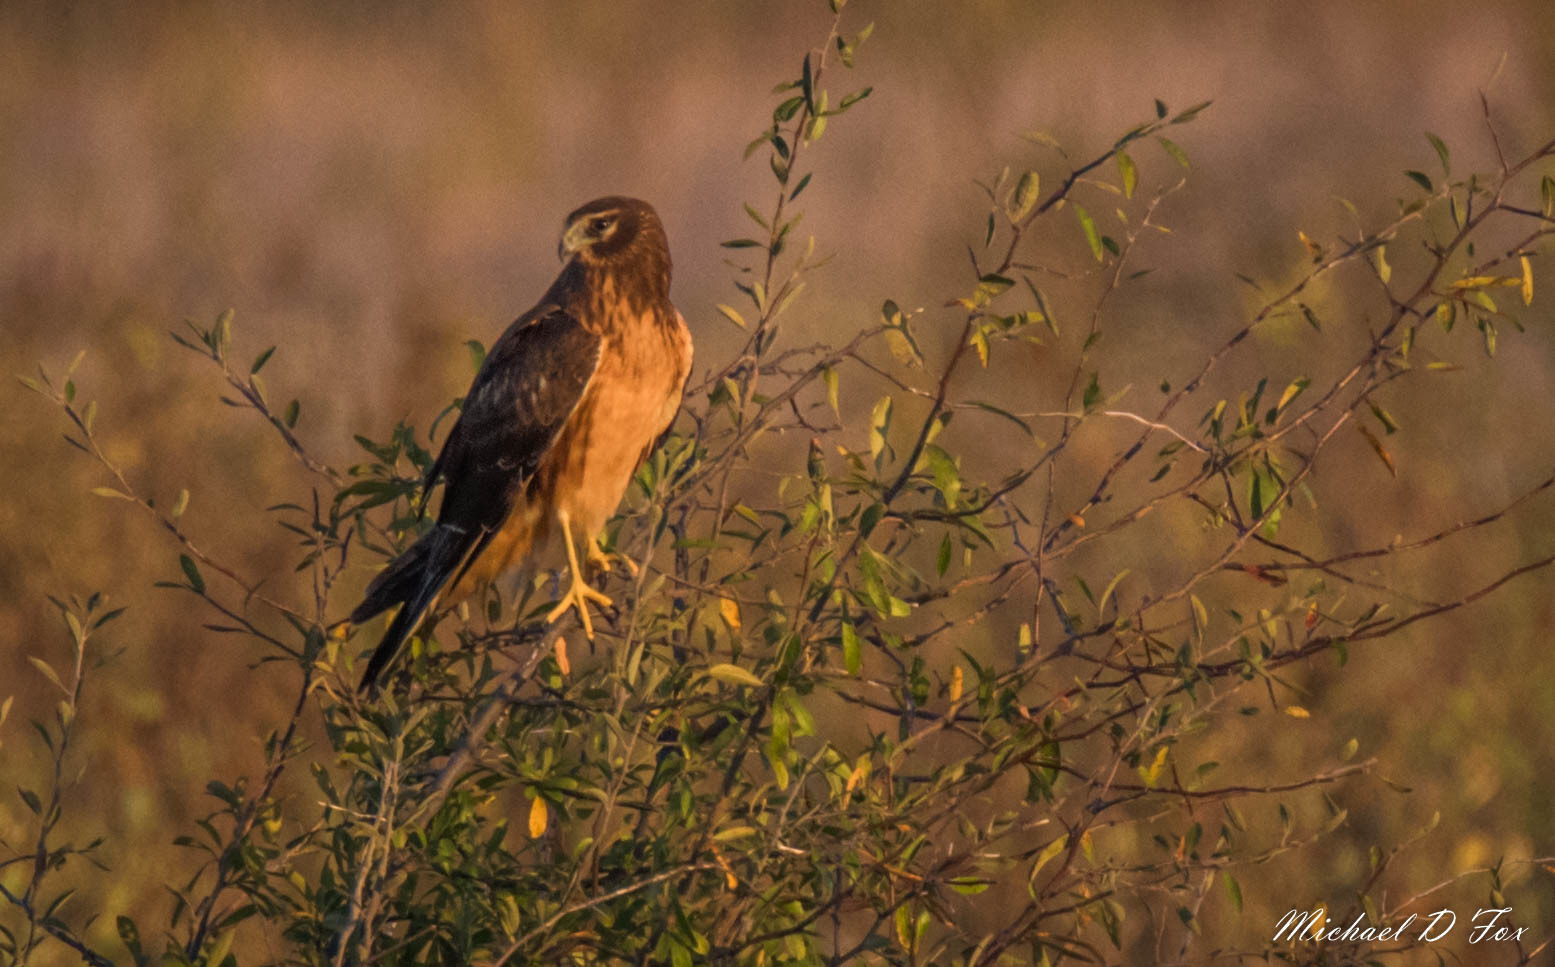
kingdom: Animalia
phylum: Chordata
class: Aves
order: Accipitriformes
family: Accipitridae
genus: Circus
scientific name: Circus cyaneus
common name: Hen harrier
